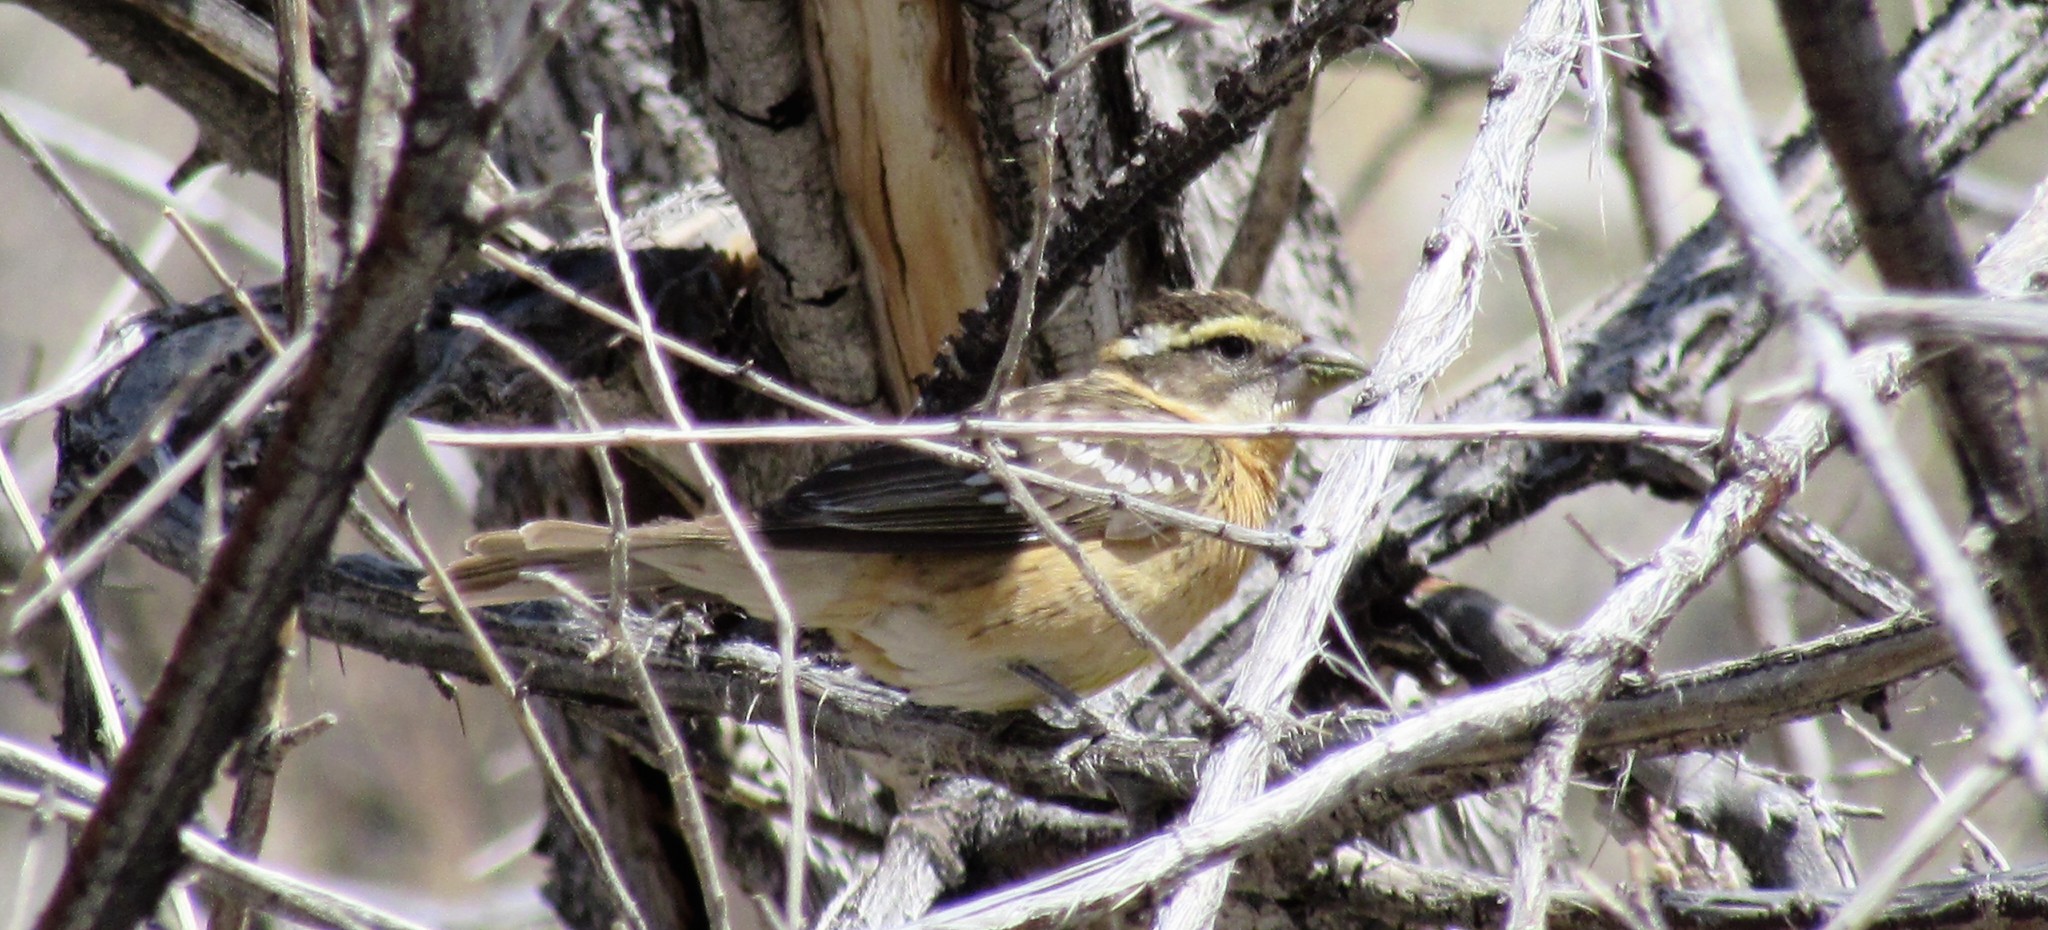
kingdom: Animalia
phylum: Chordata
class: Aves
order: Passeriformes
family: Cardinalidae
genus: Pheucticus
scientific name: Pheucticus melanocephalus
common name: Black-headed grosbeak
